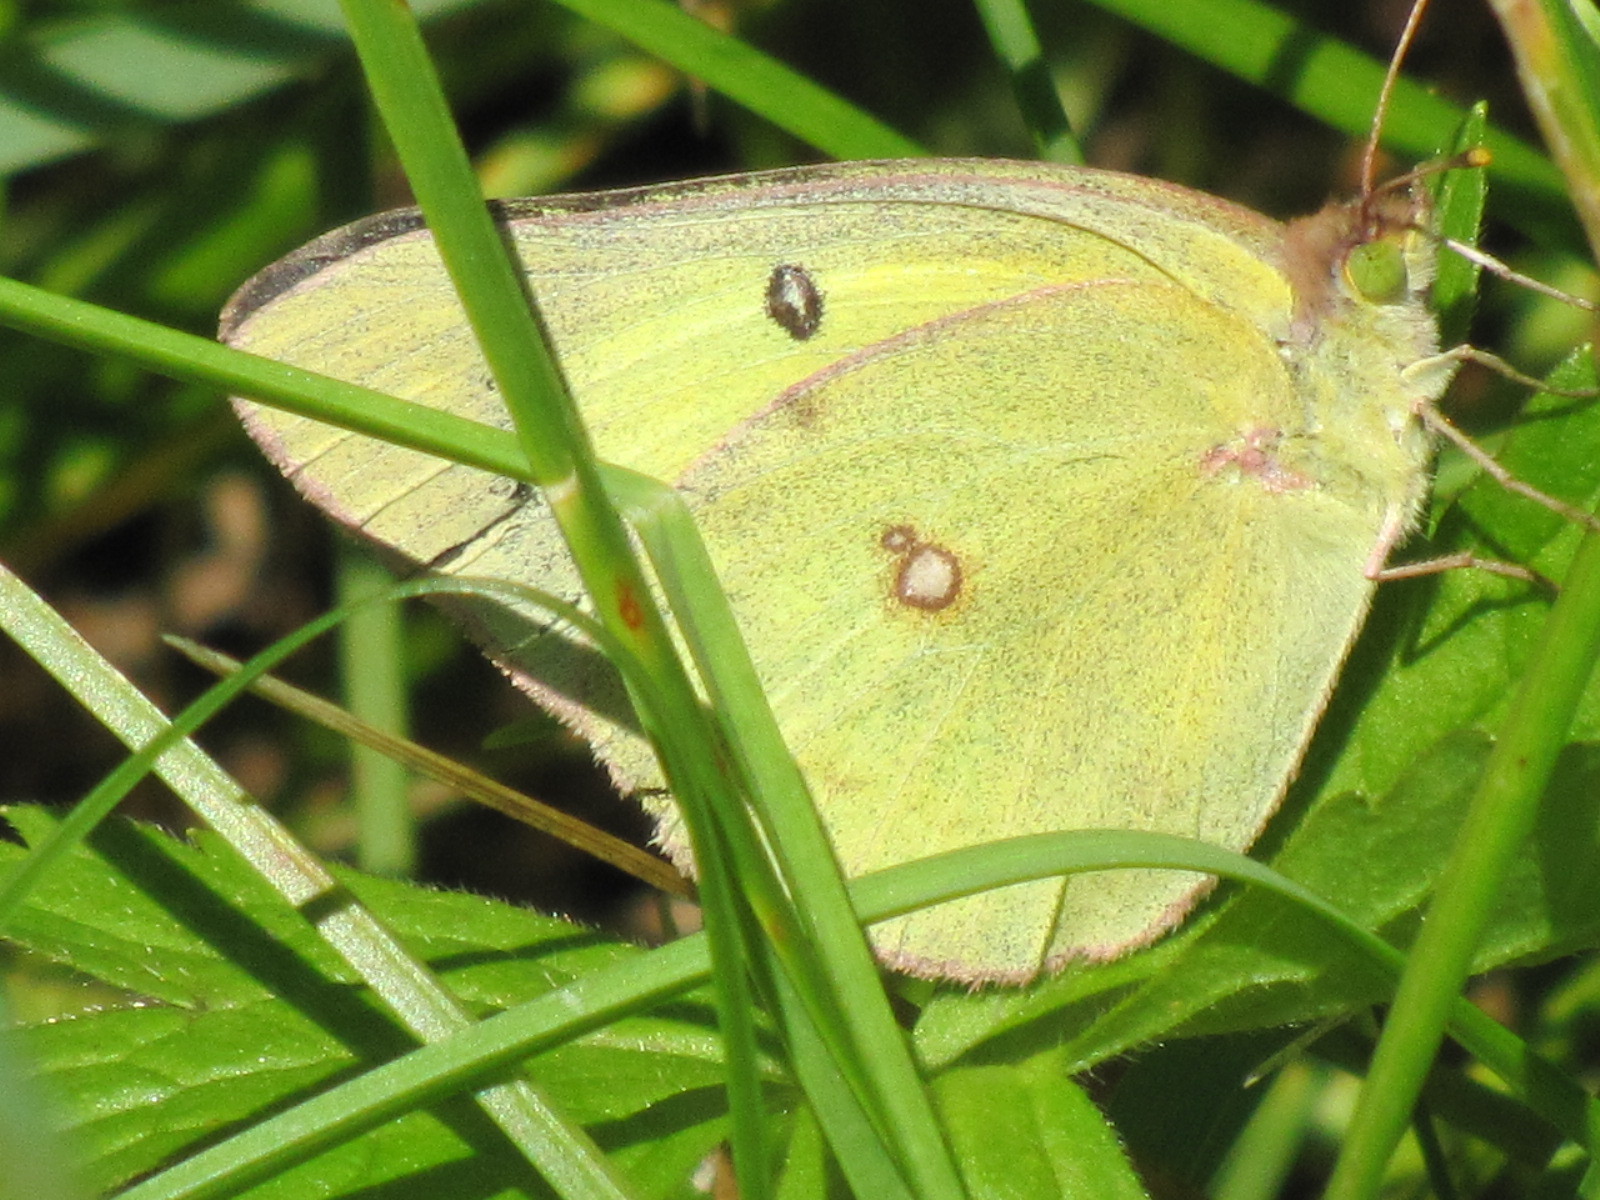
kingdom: Animalia
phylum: Arthropoda
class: Insecta
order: Lepidoptera
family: Pieridae
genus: Colias
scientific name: Colias philodice
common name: Clouded sulphur
